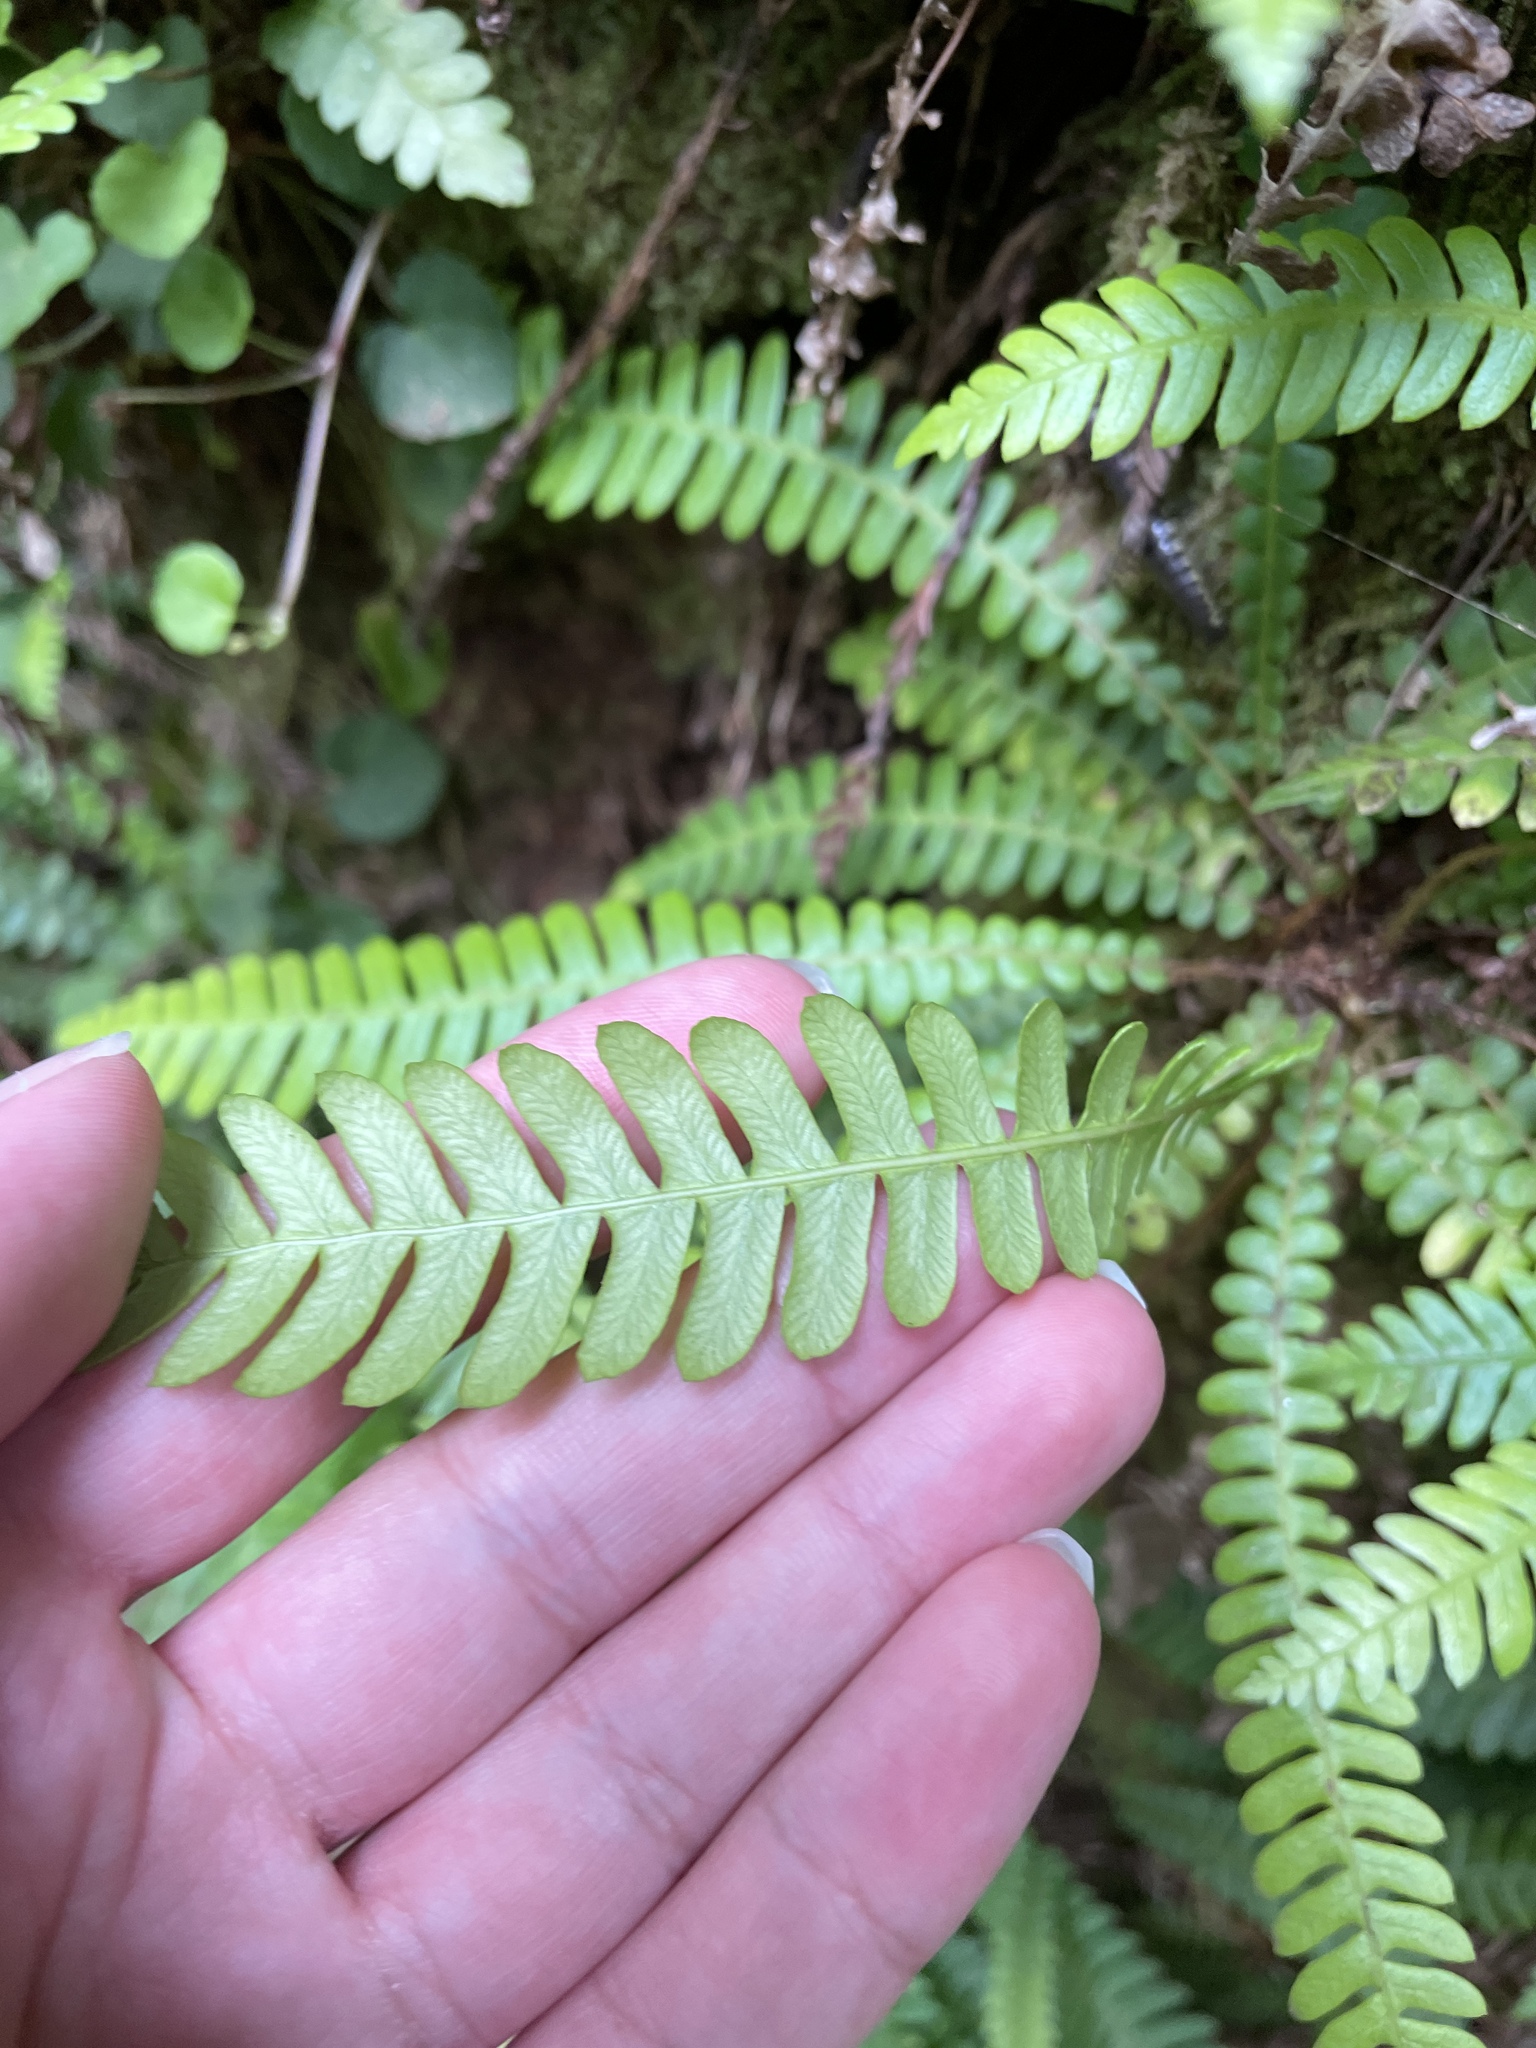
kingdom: Plantae
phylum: Tracheophyta
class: Polypodiopsida
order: Polypodiales
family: Blechnaceae
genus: Struthiopteris
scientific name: Struthiopteris spicant
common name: Deer fern
